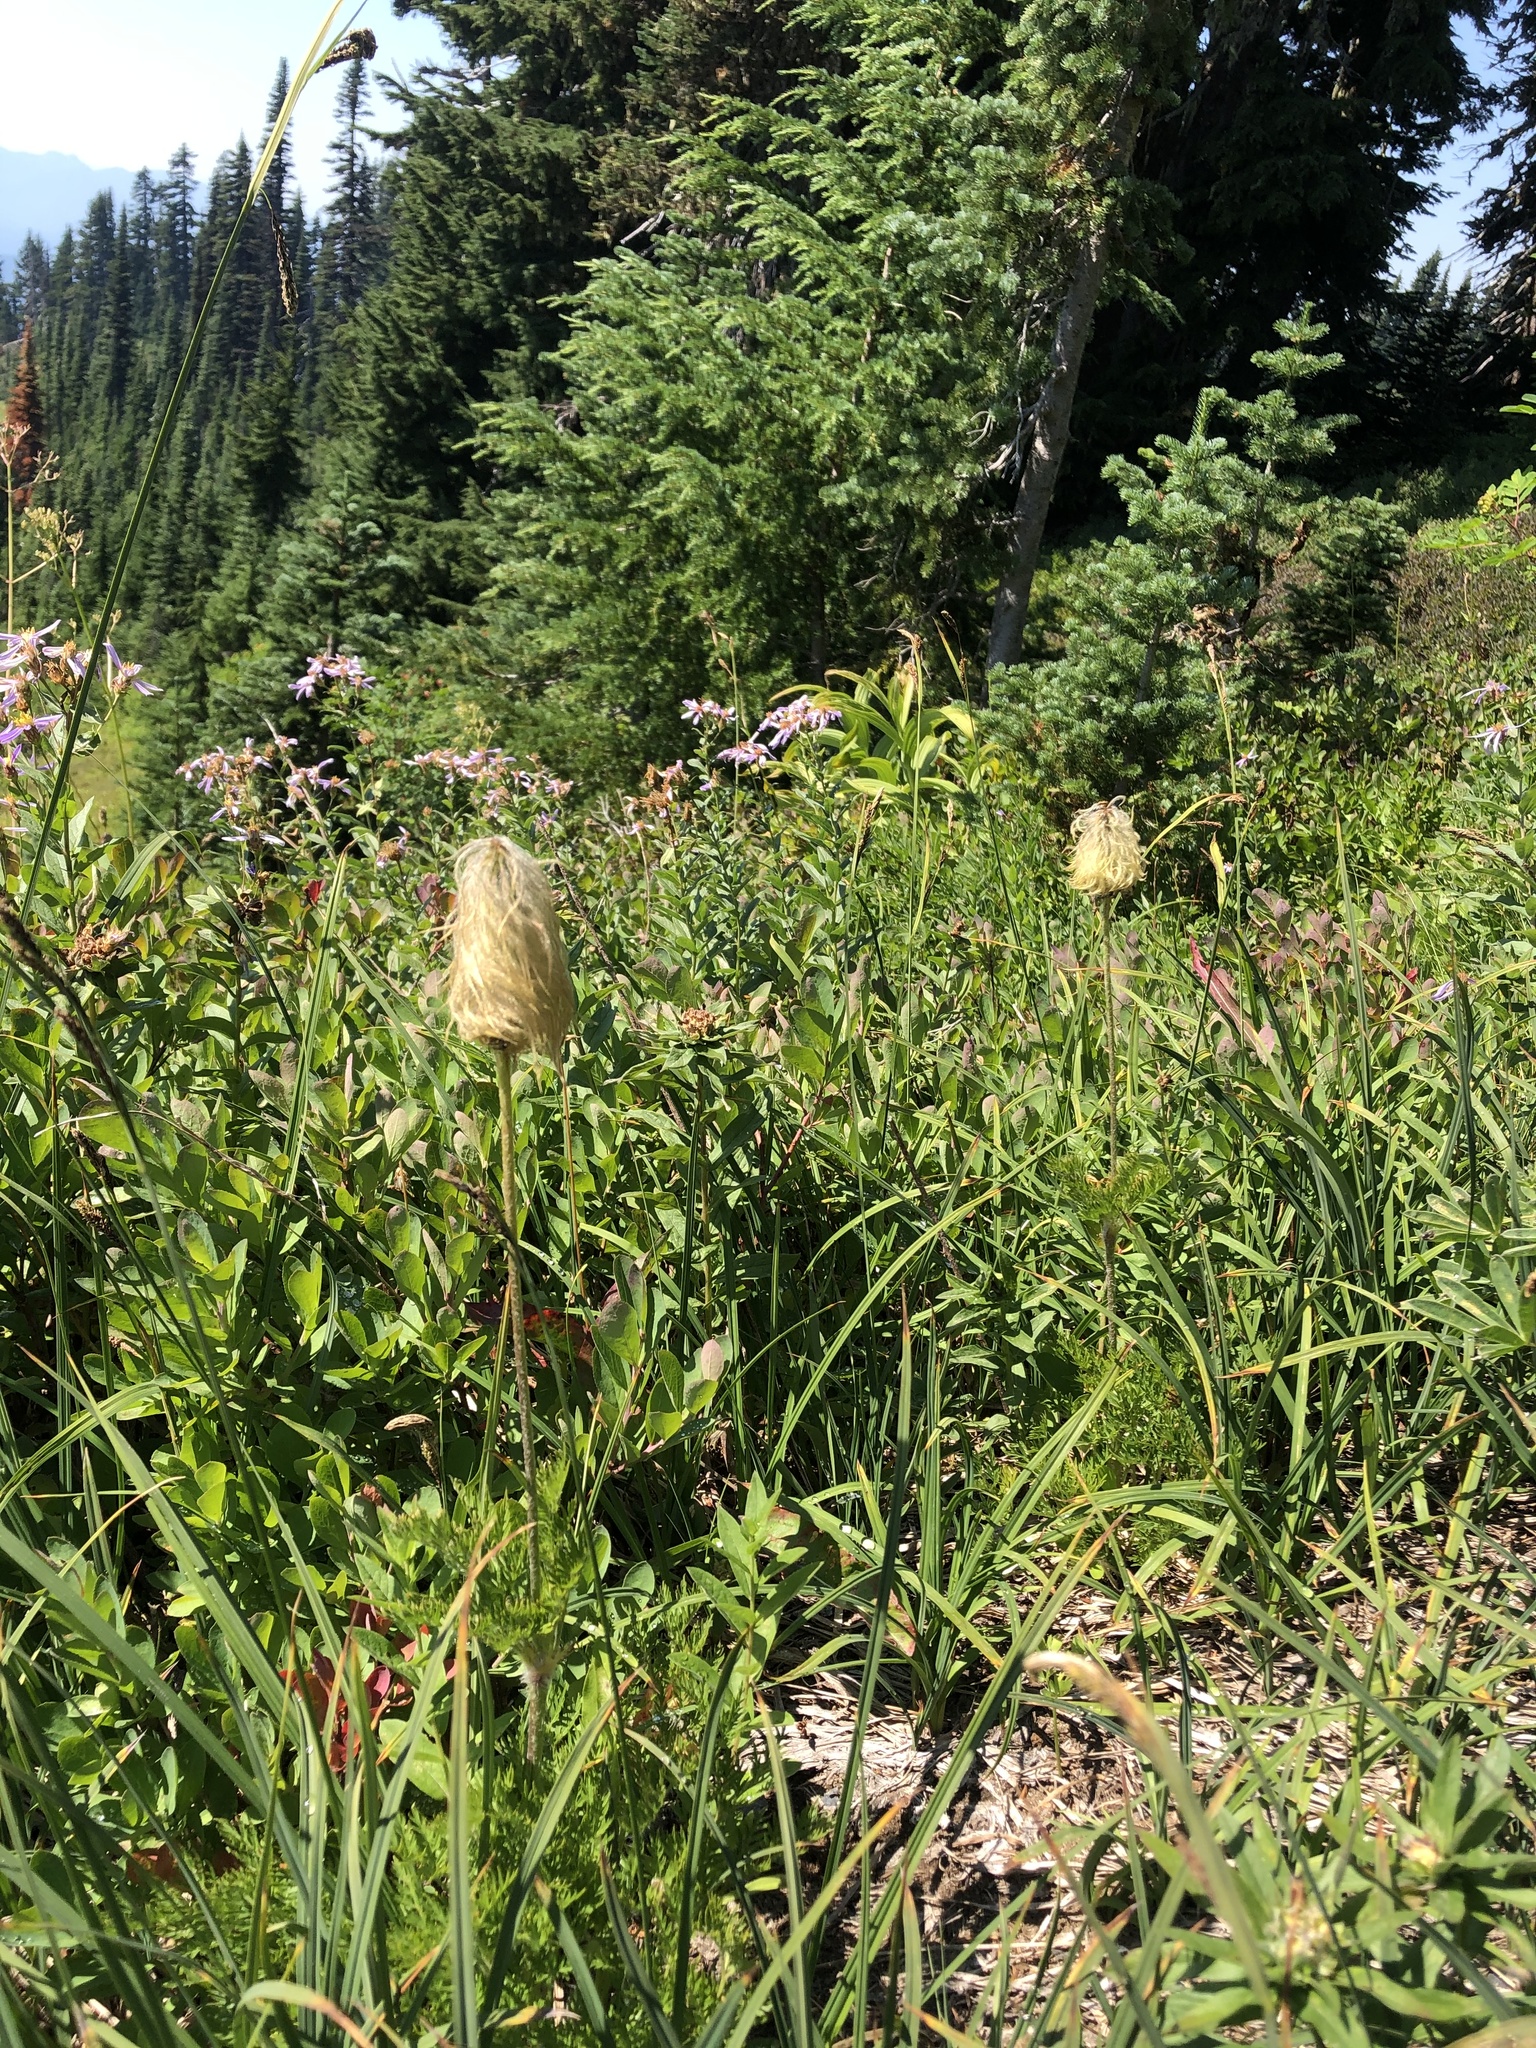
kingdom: Plantae
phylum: Tracheophyta
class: Magnoliopsida
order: Ranunculales
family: Ranunculaceae
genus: Pulsatilla
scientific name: Pulsatilla occidentalis
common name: Mountain pasqueflower
